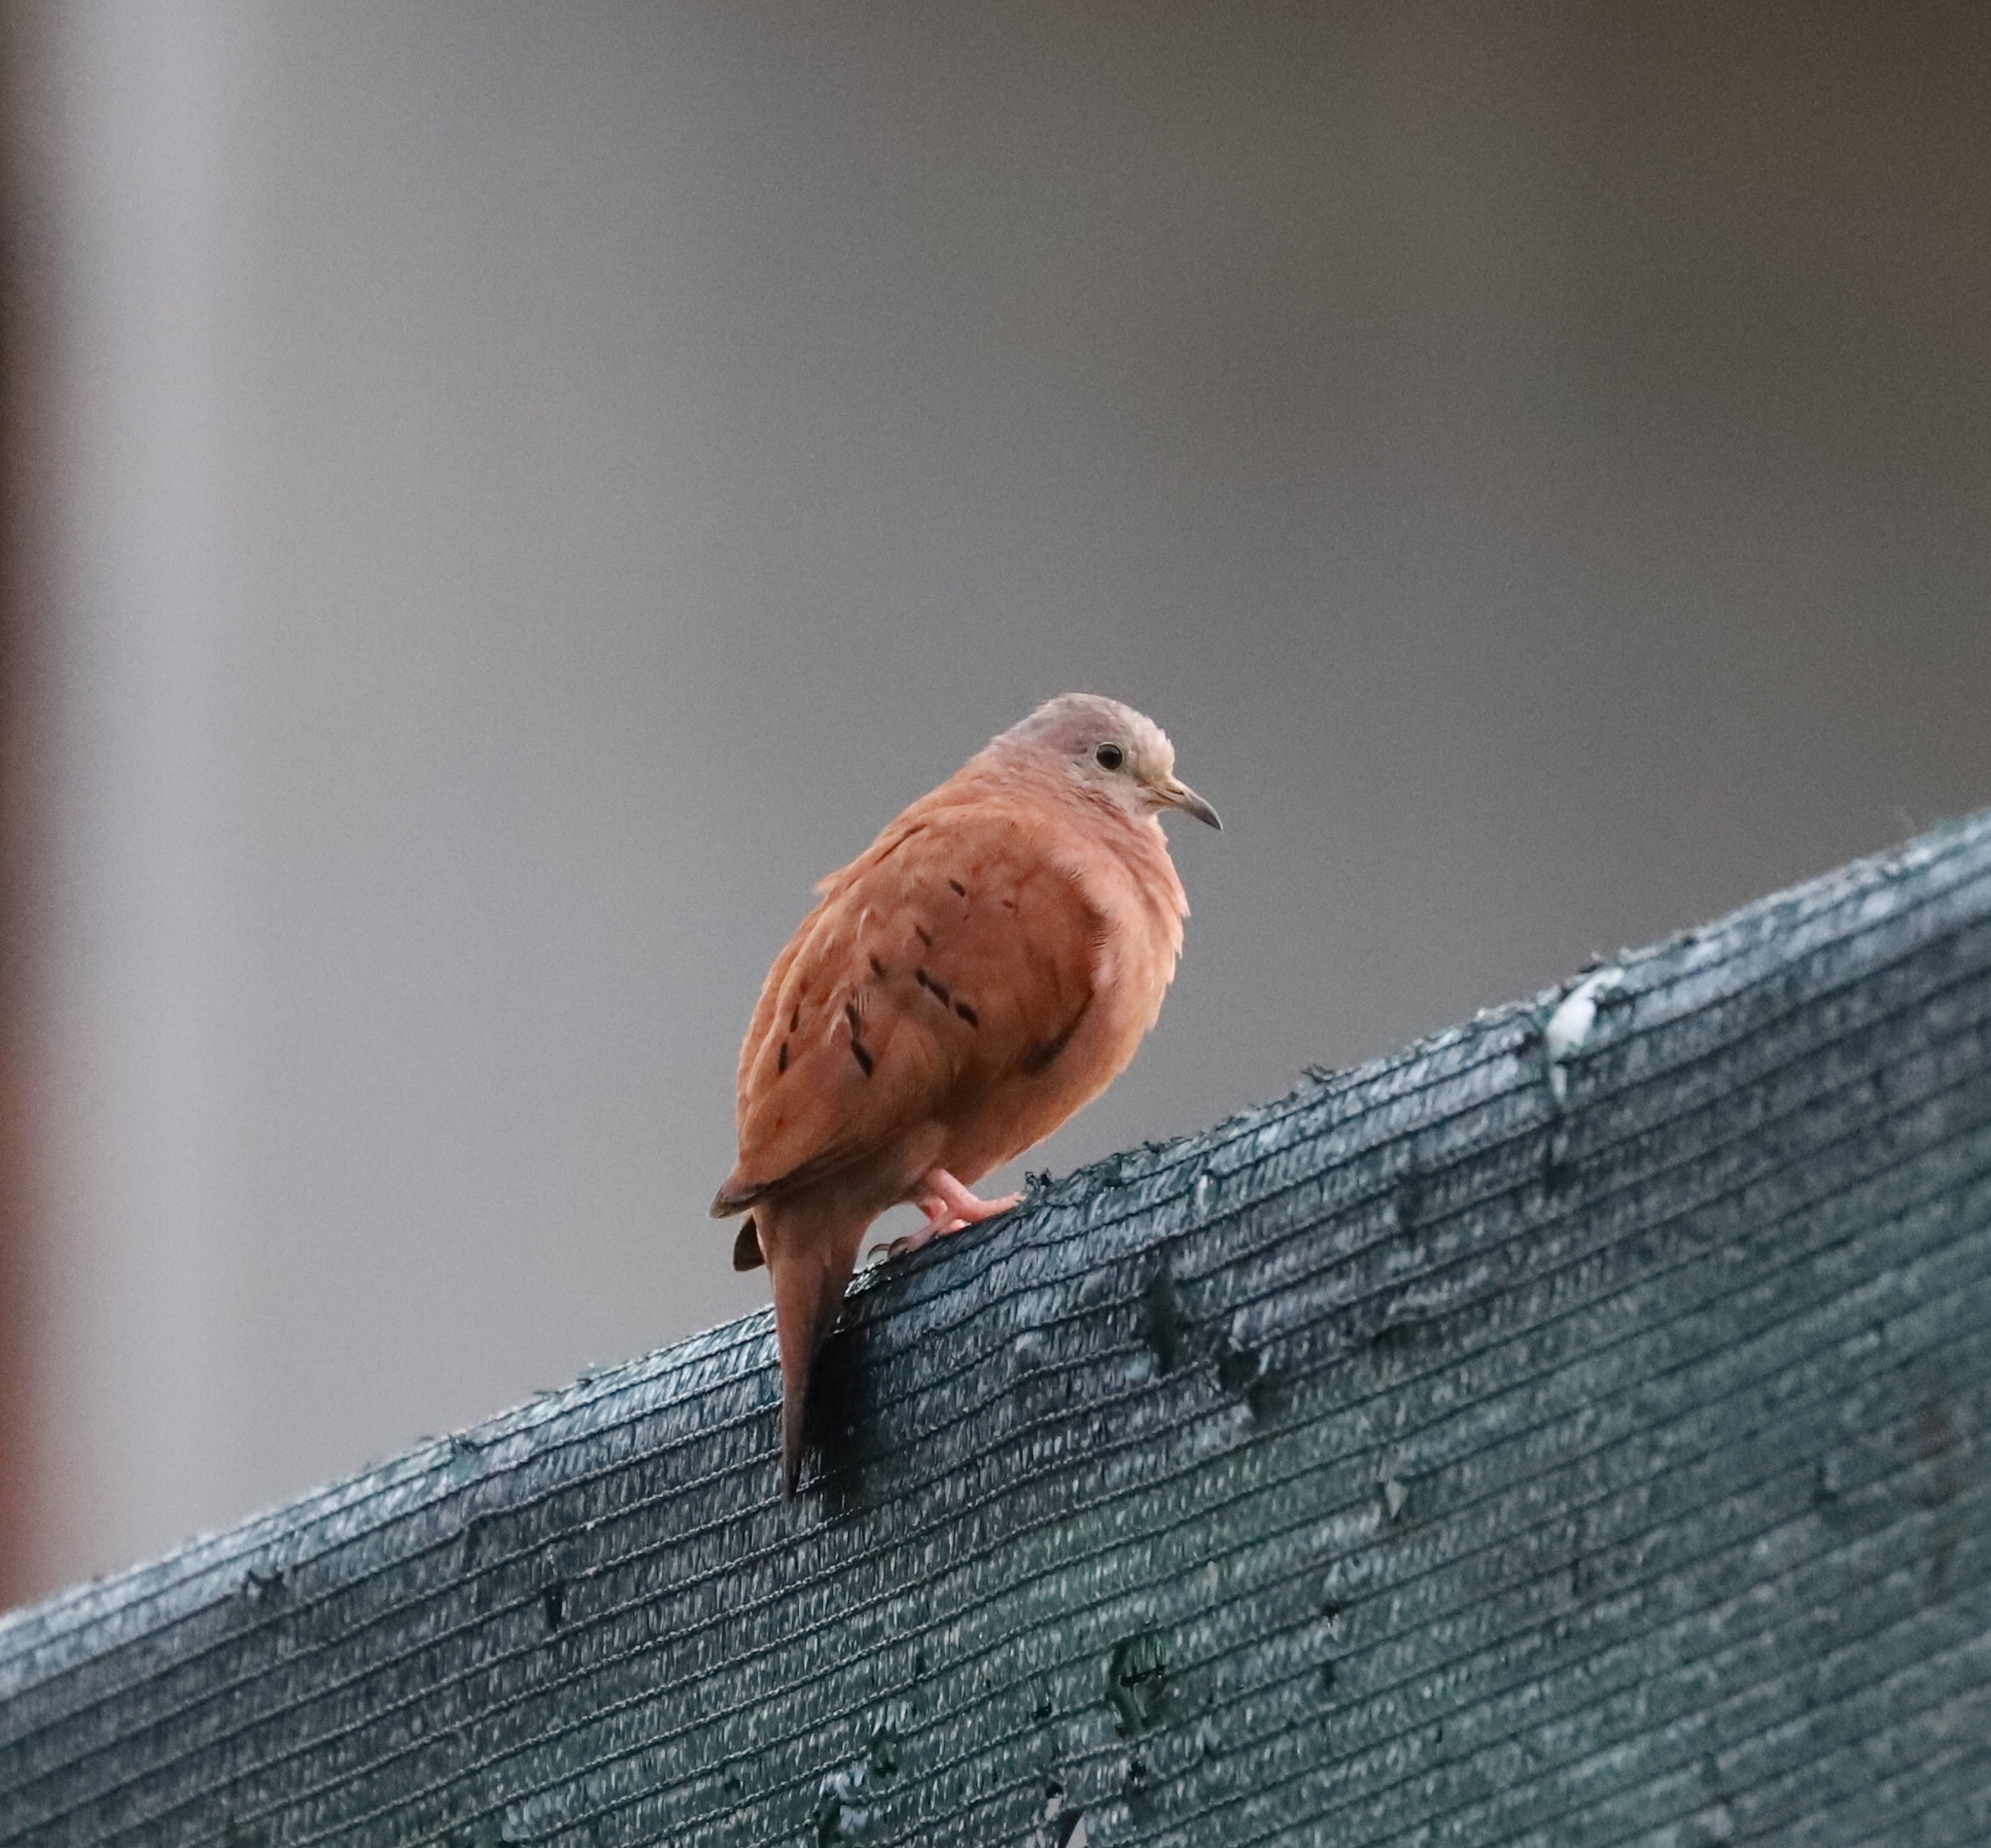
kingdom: Animalia
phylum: Chordata
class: Aves
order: Columbiformes
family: Columbidae
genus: Columbina
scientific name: Columbina talpacoti
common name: Ruddy ground dove
